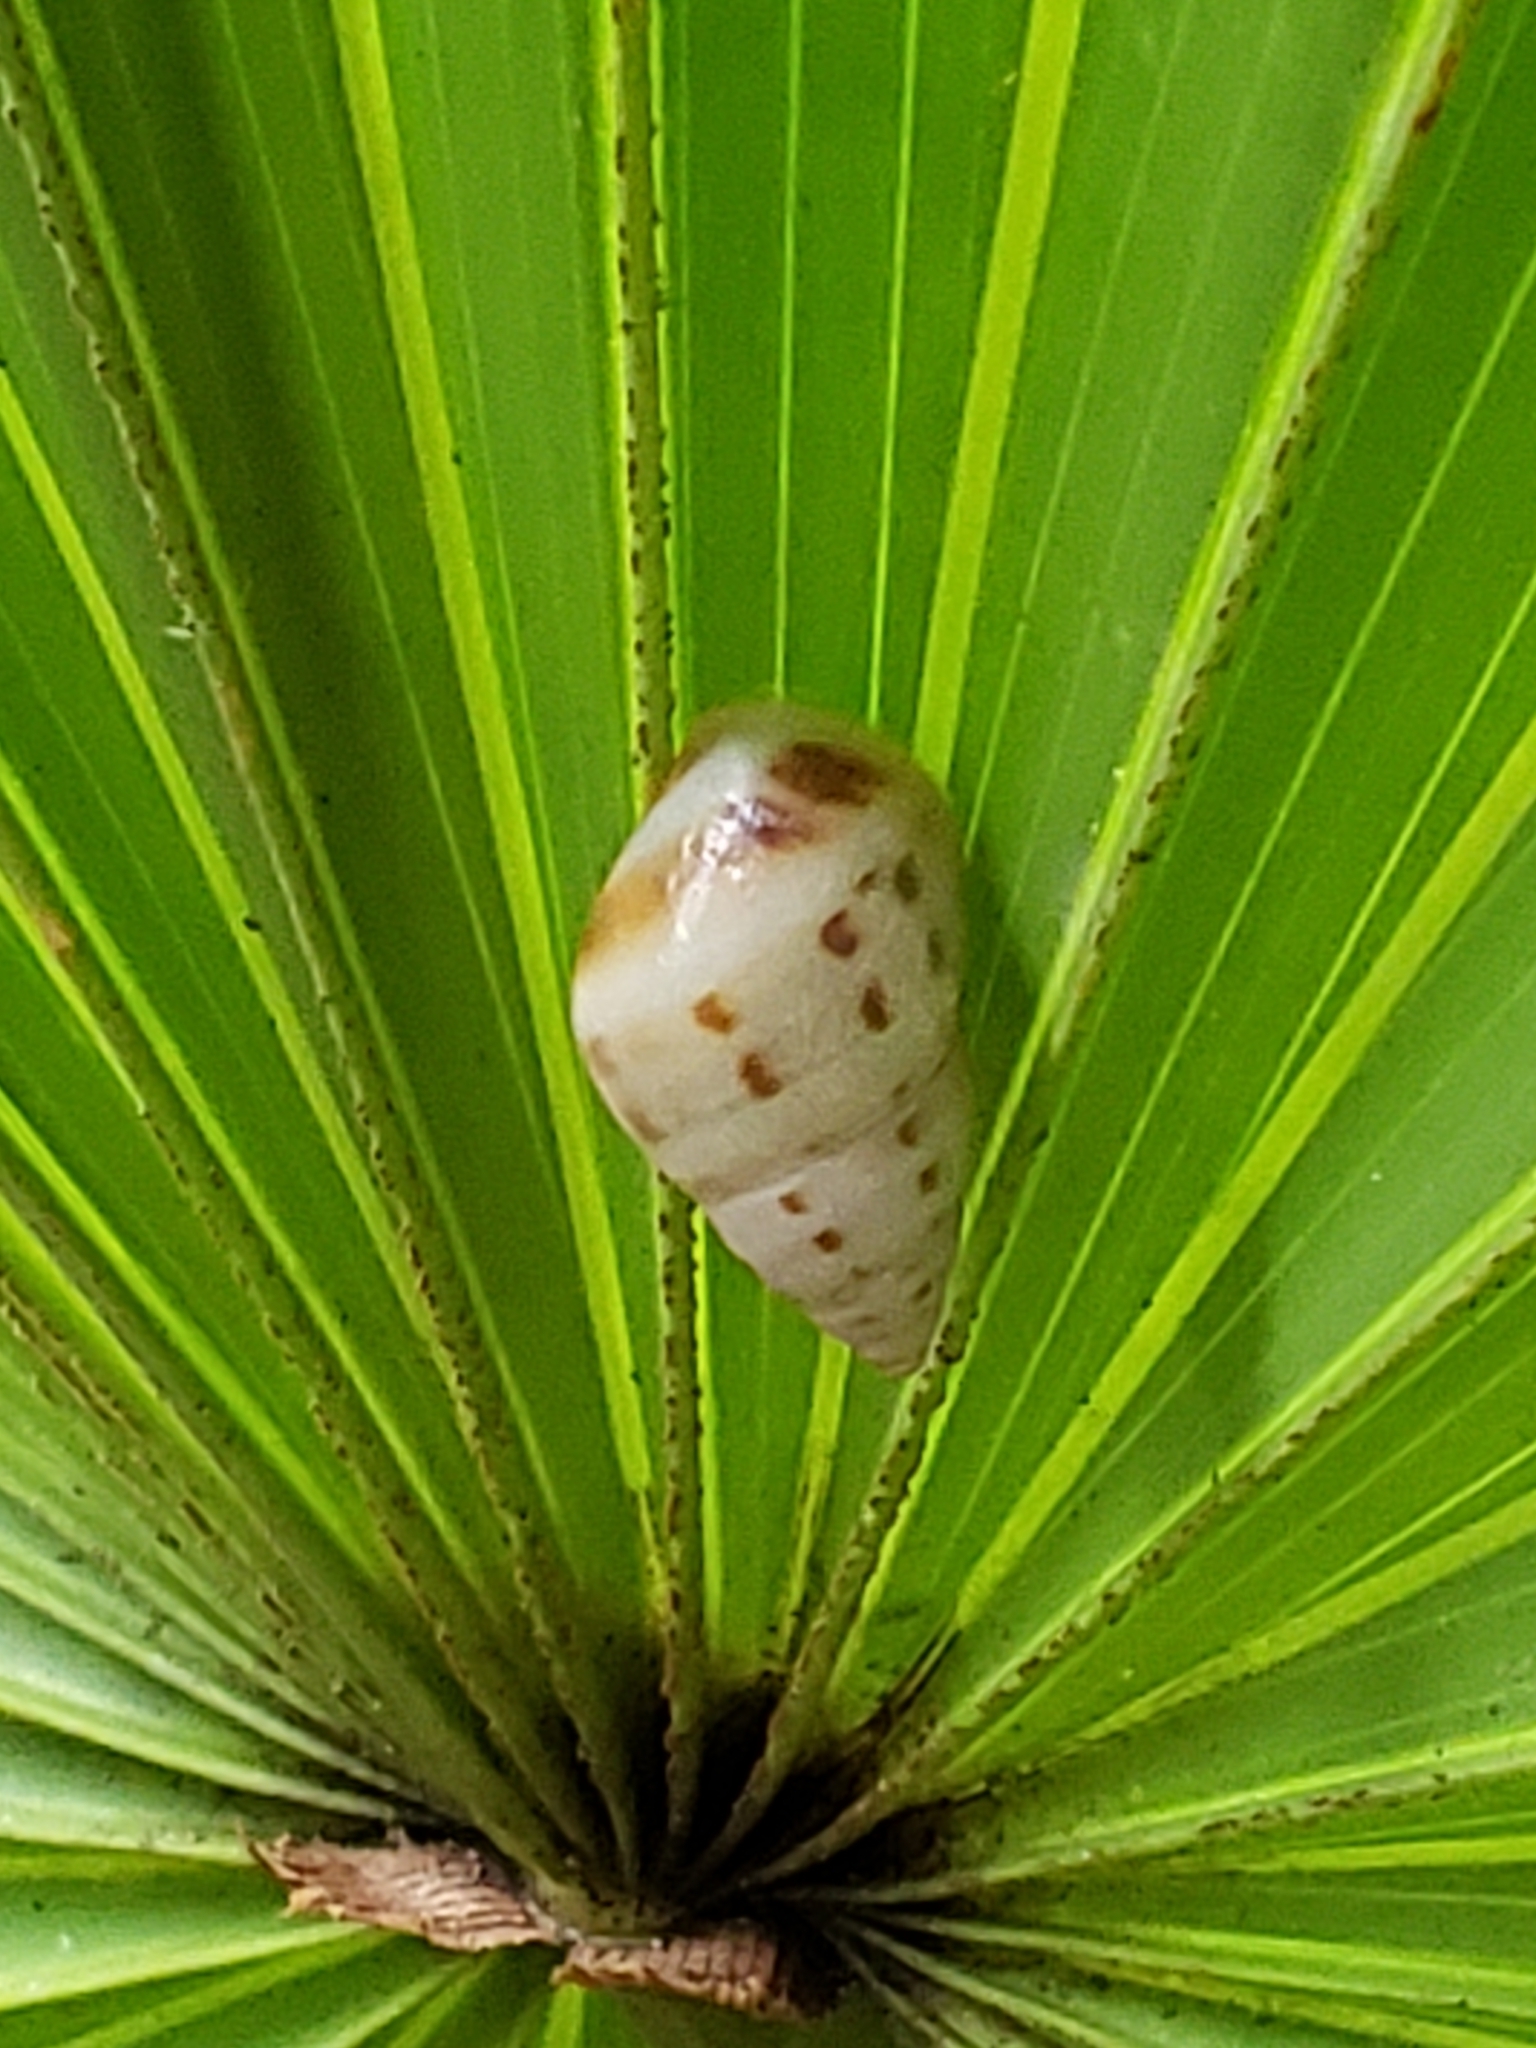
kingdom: Animalia
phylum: Mollusca
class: Gastropoda
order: Stylommatophora
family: Bulimulidae
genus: Drymaeus
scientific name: Drymaeus dormani
